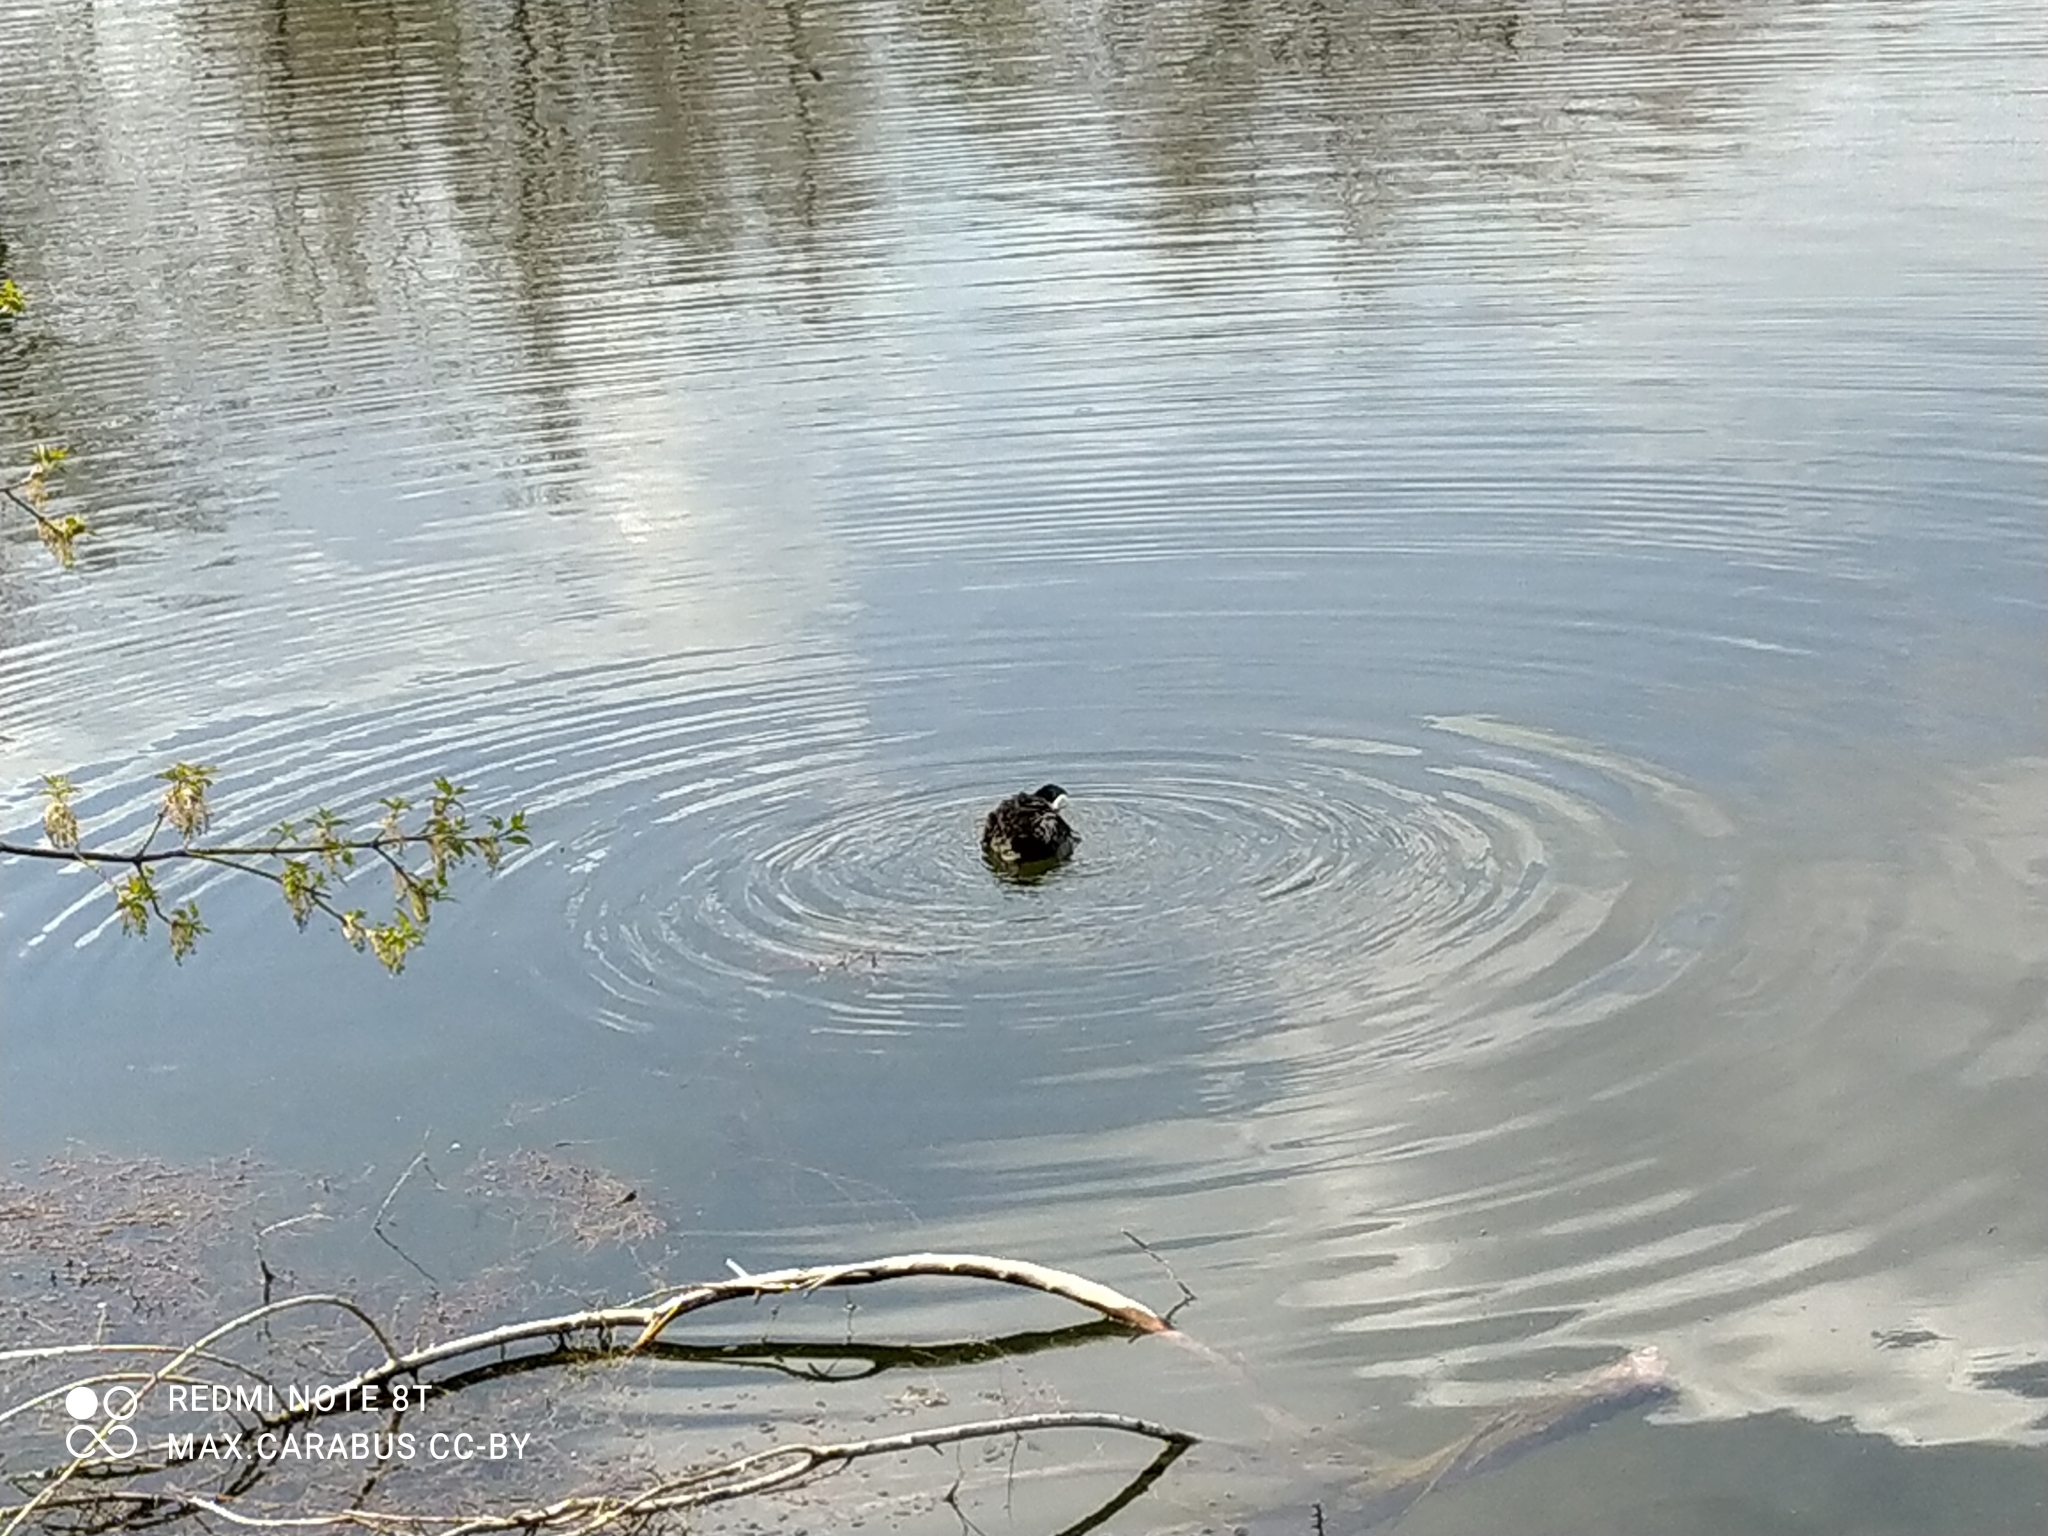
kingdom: Animalia
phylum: Chordata
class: Aves
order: Gruiformes
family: Rallidae
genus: Fulica
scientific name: Fulica atra
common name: Eurasian coot
